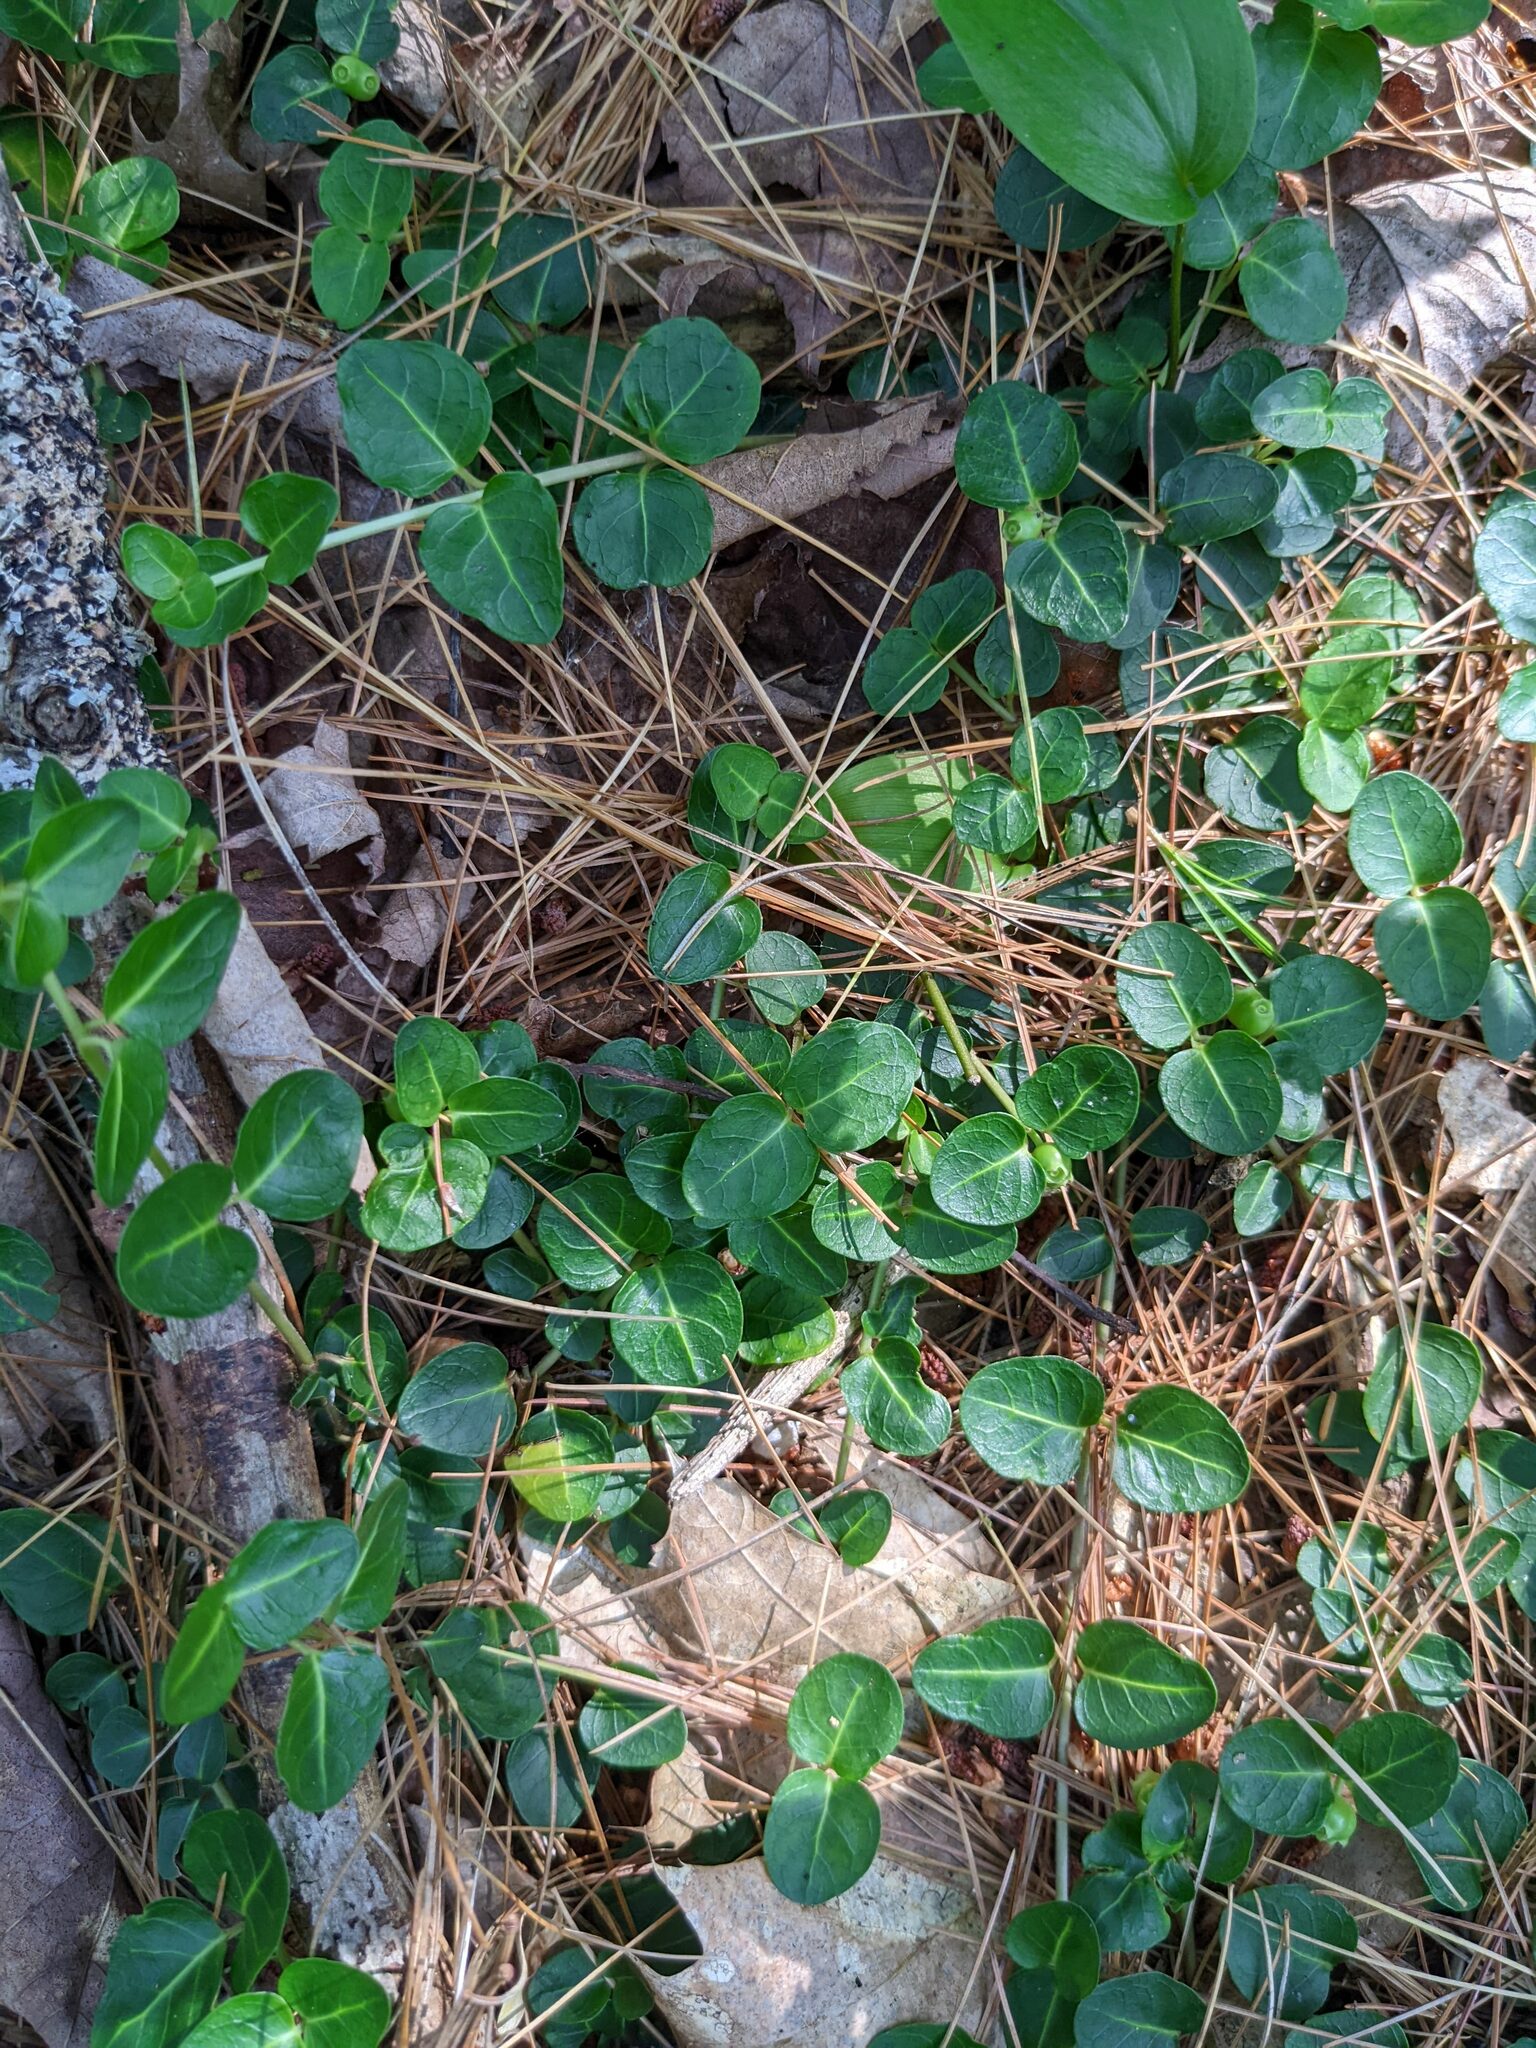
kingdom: Plantae
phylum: Tracheophyta
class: Magnoliopsida
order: Gentianales
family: Rubiaceae
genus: Mitchella
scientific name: Mitchella repens
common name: Partridge-berry
